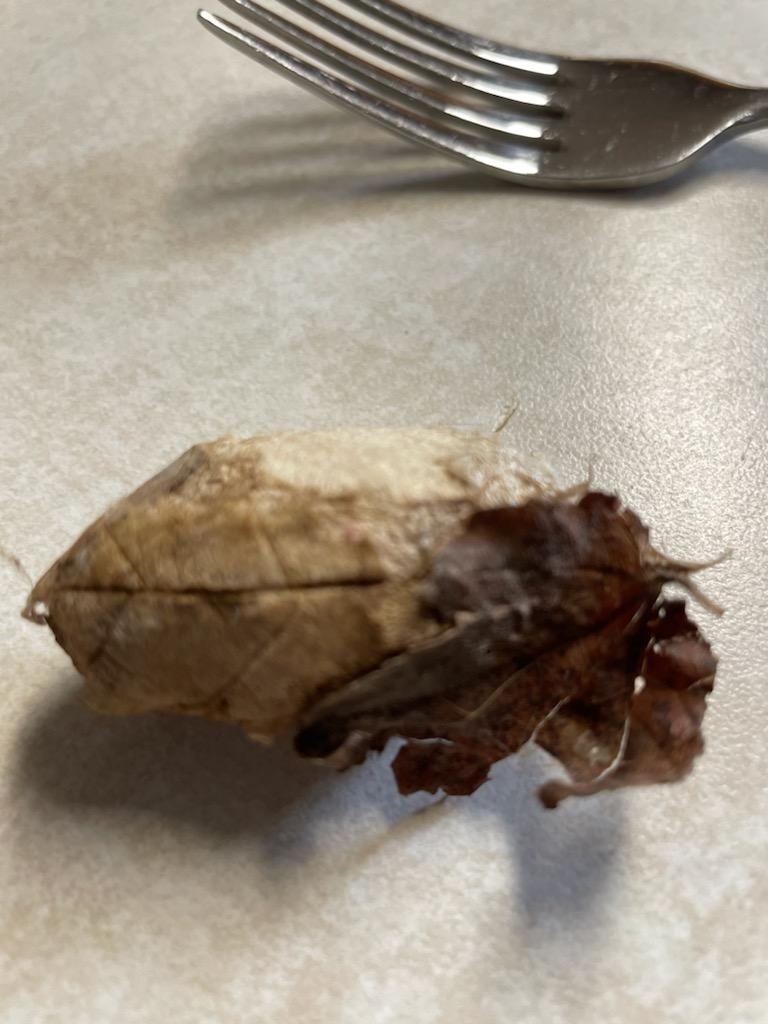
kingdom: Animalia
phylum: Arthropoda
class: Insecta
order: Lepidoptera
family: Saturniidae
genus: Antheraea
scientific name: Antheraea polyphemus
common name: Polyphemus moth
